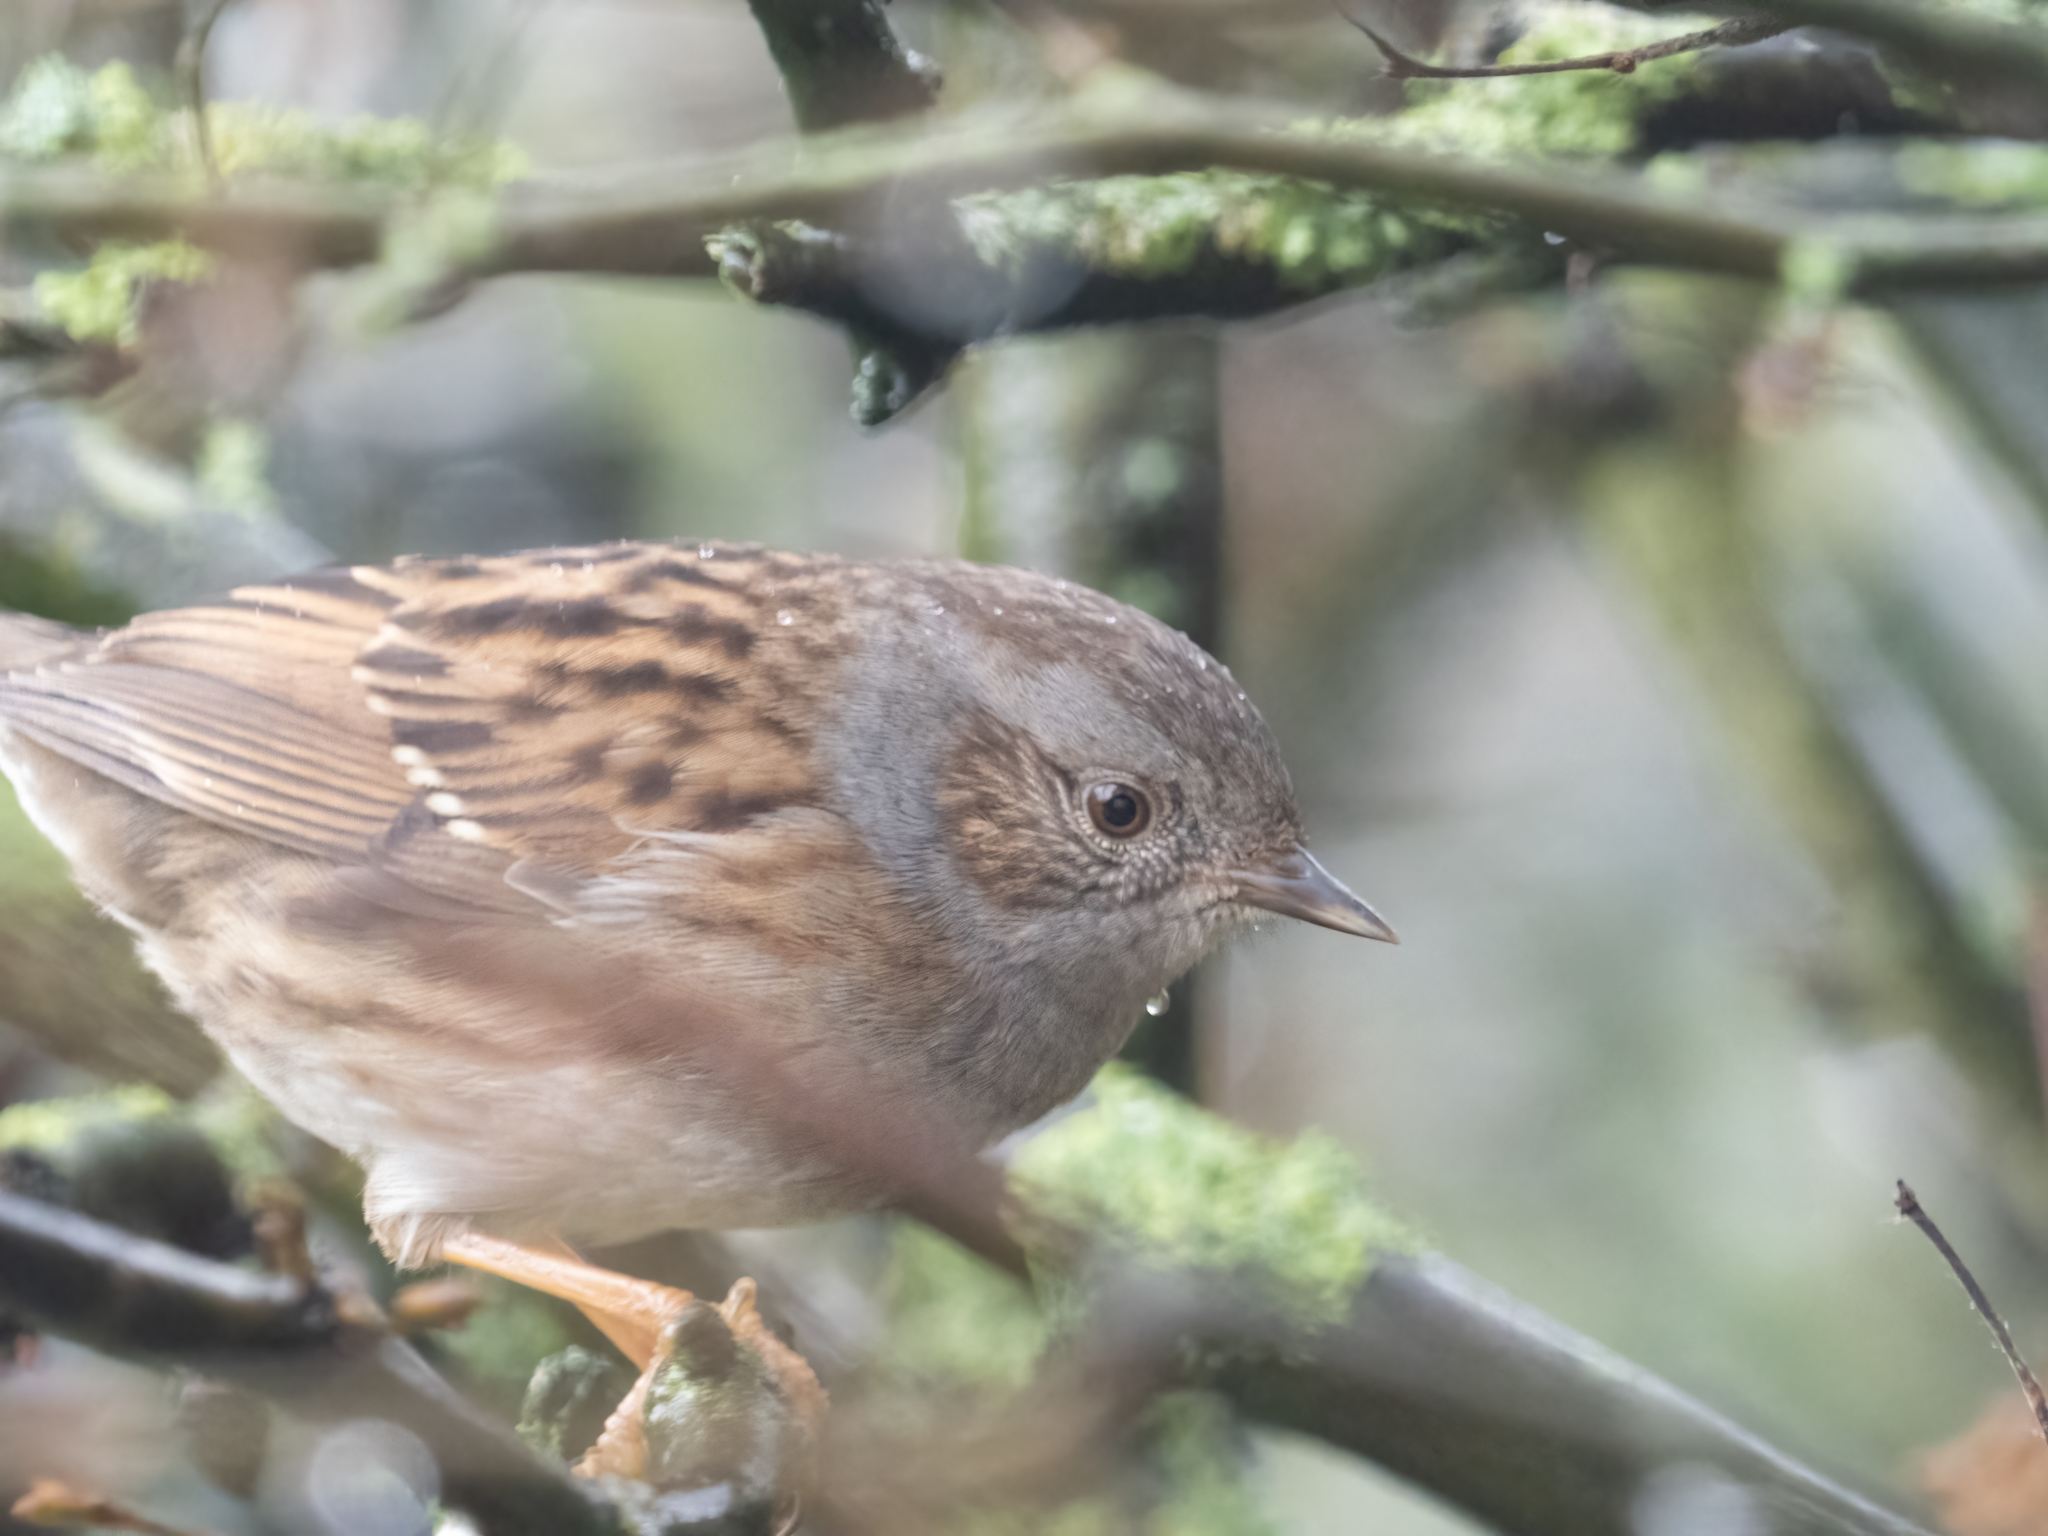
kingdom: Animalia
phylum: Chordata
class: Aves
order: Passeriformes
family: Prunellidae
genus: Prunella
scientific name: Prunella modularis
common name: Dunnock
